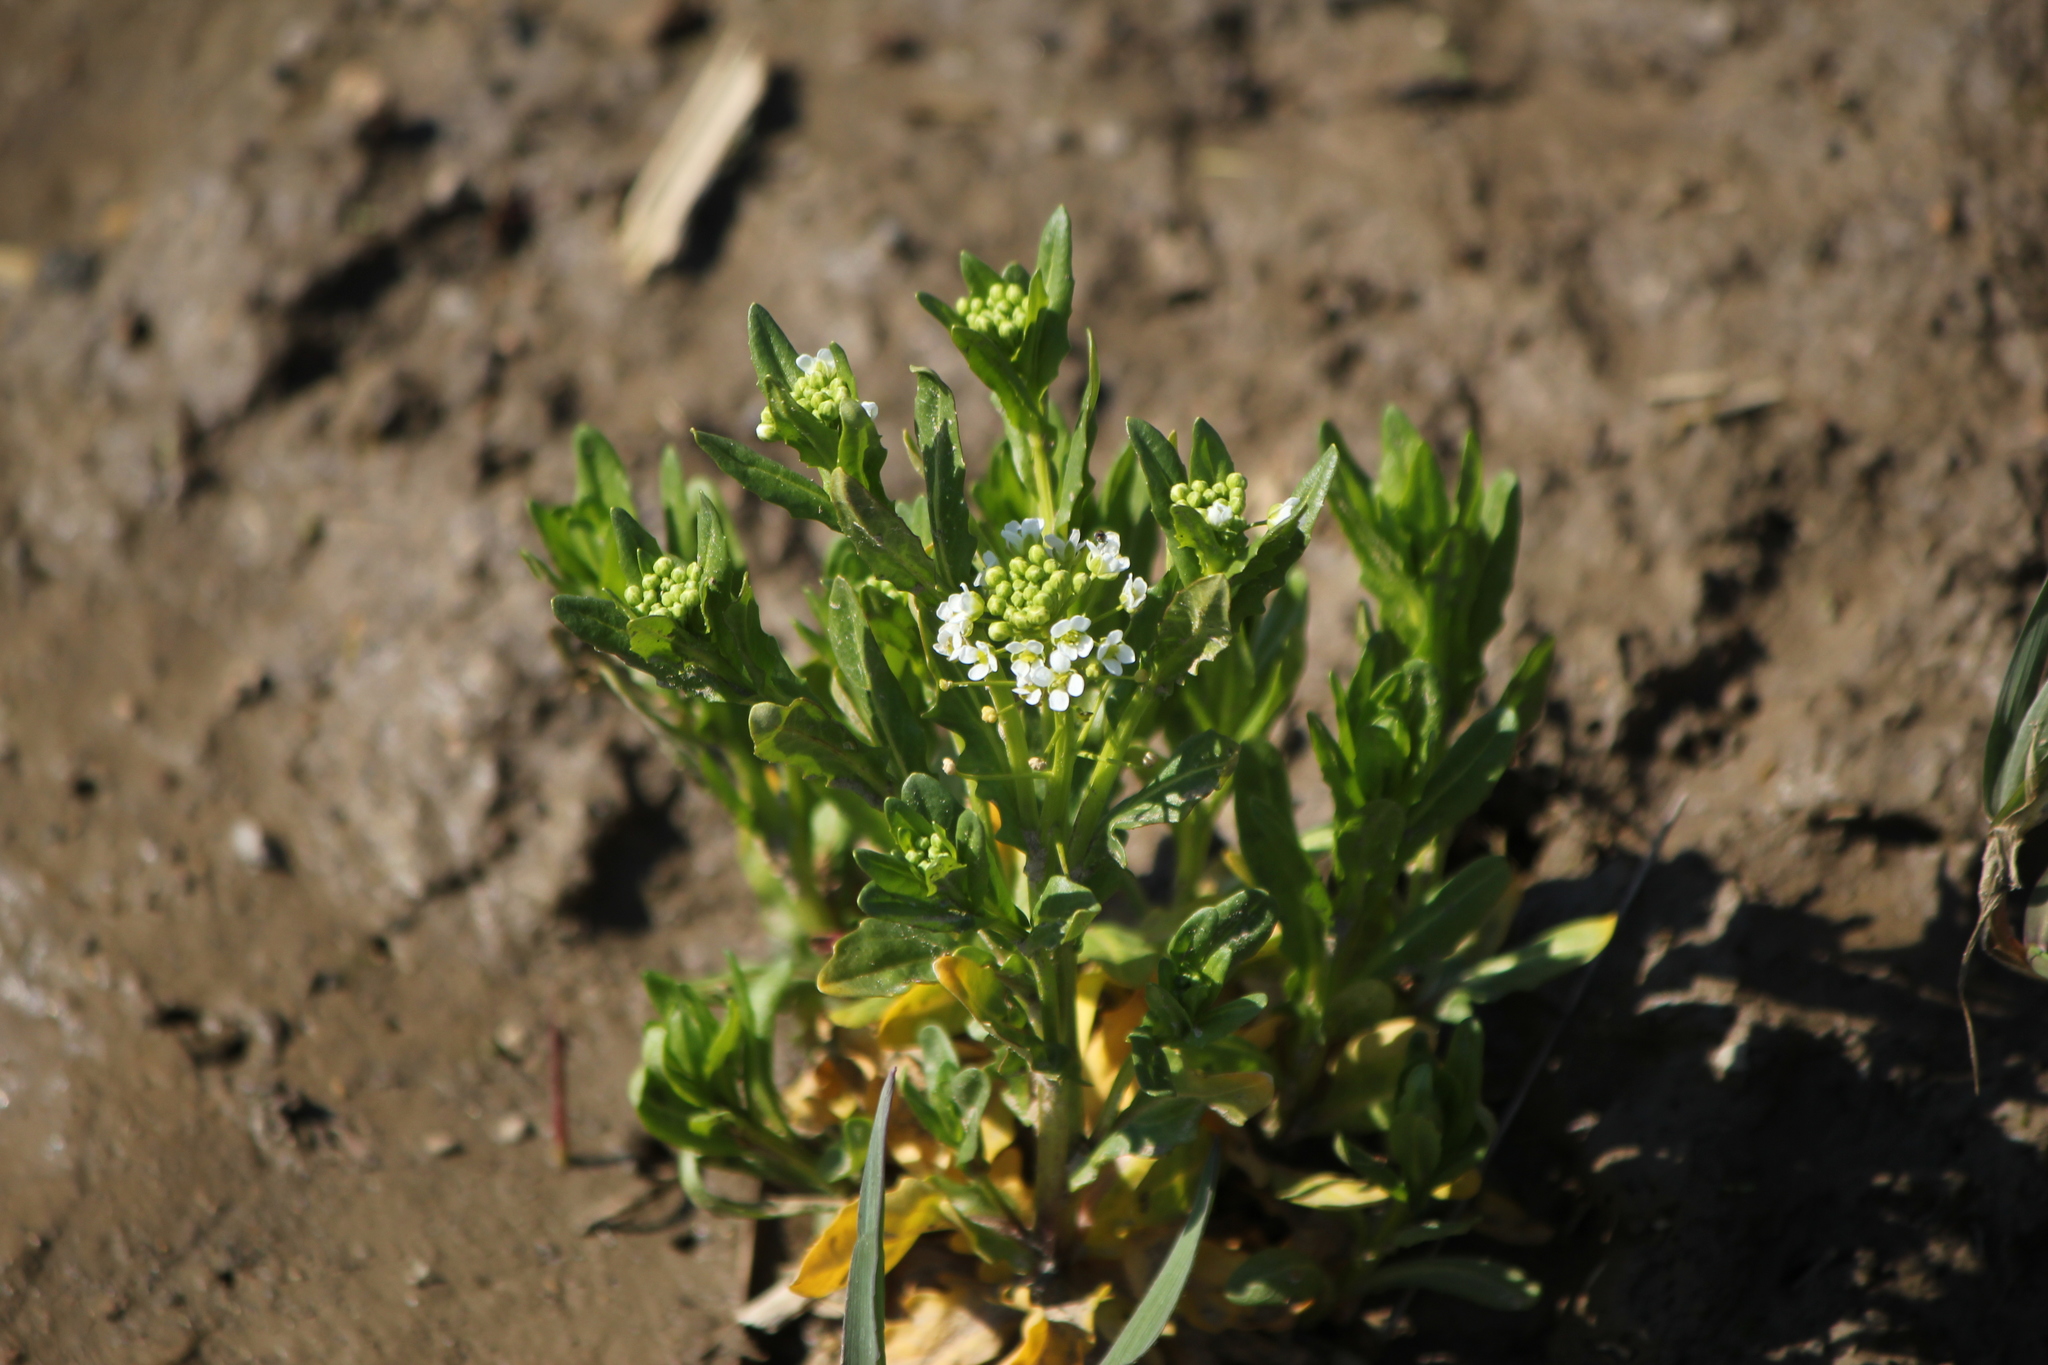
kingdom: Plantae
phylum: Tracheophyta
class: Magnoliopsida
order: Brassicales
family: Brassicaceae
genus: Thlaspi
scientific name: Thlaspi arvense
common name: Field pennycress
